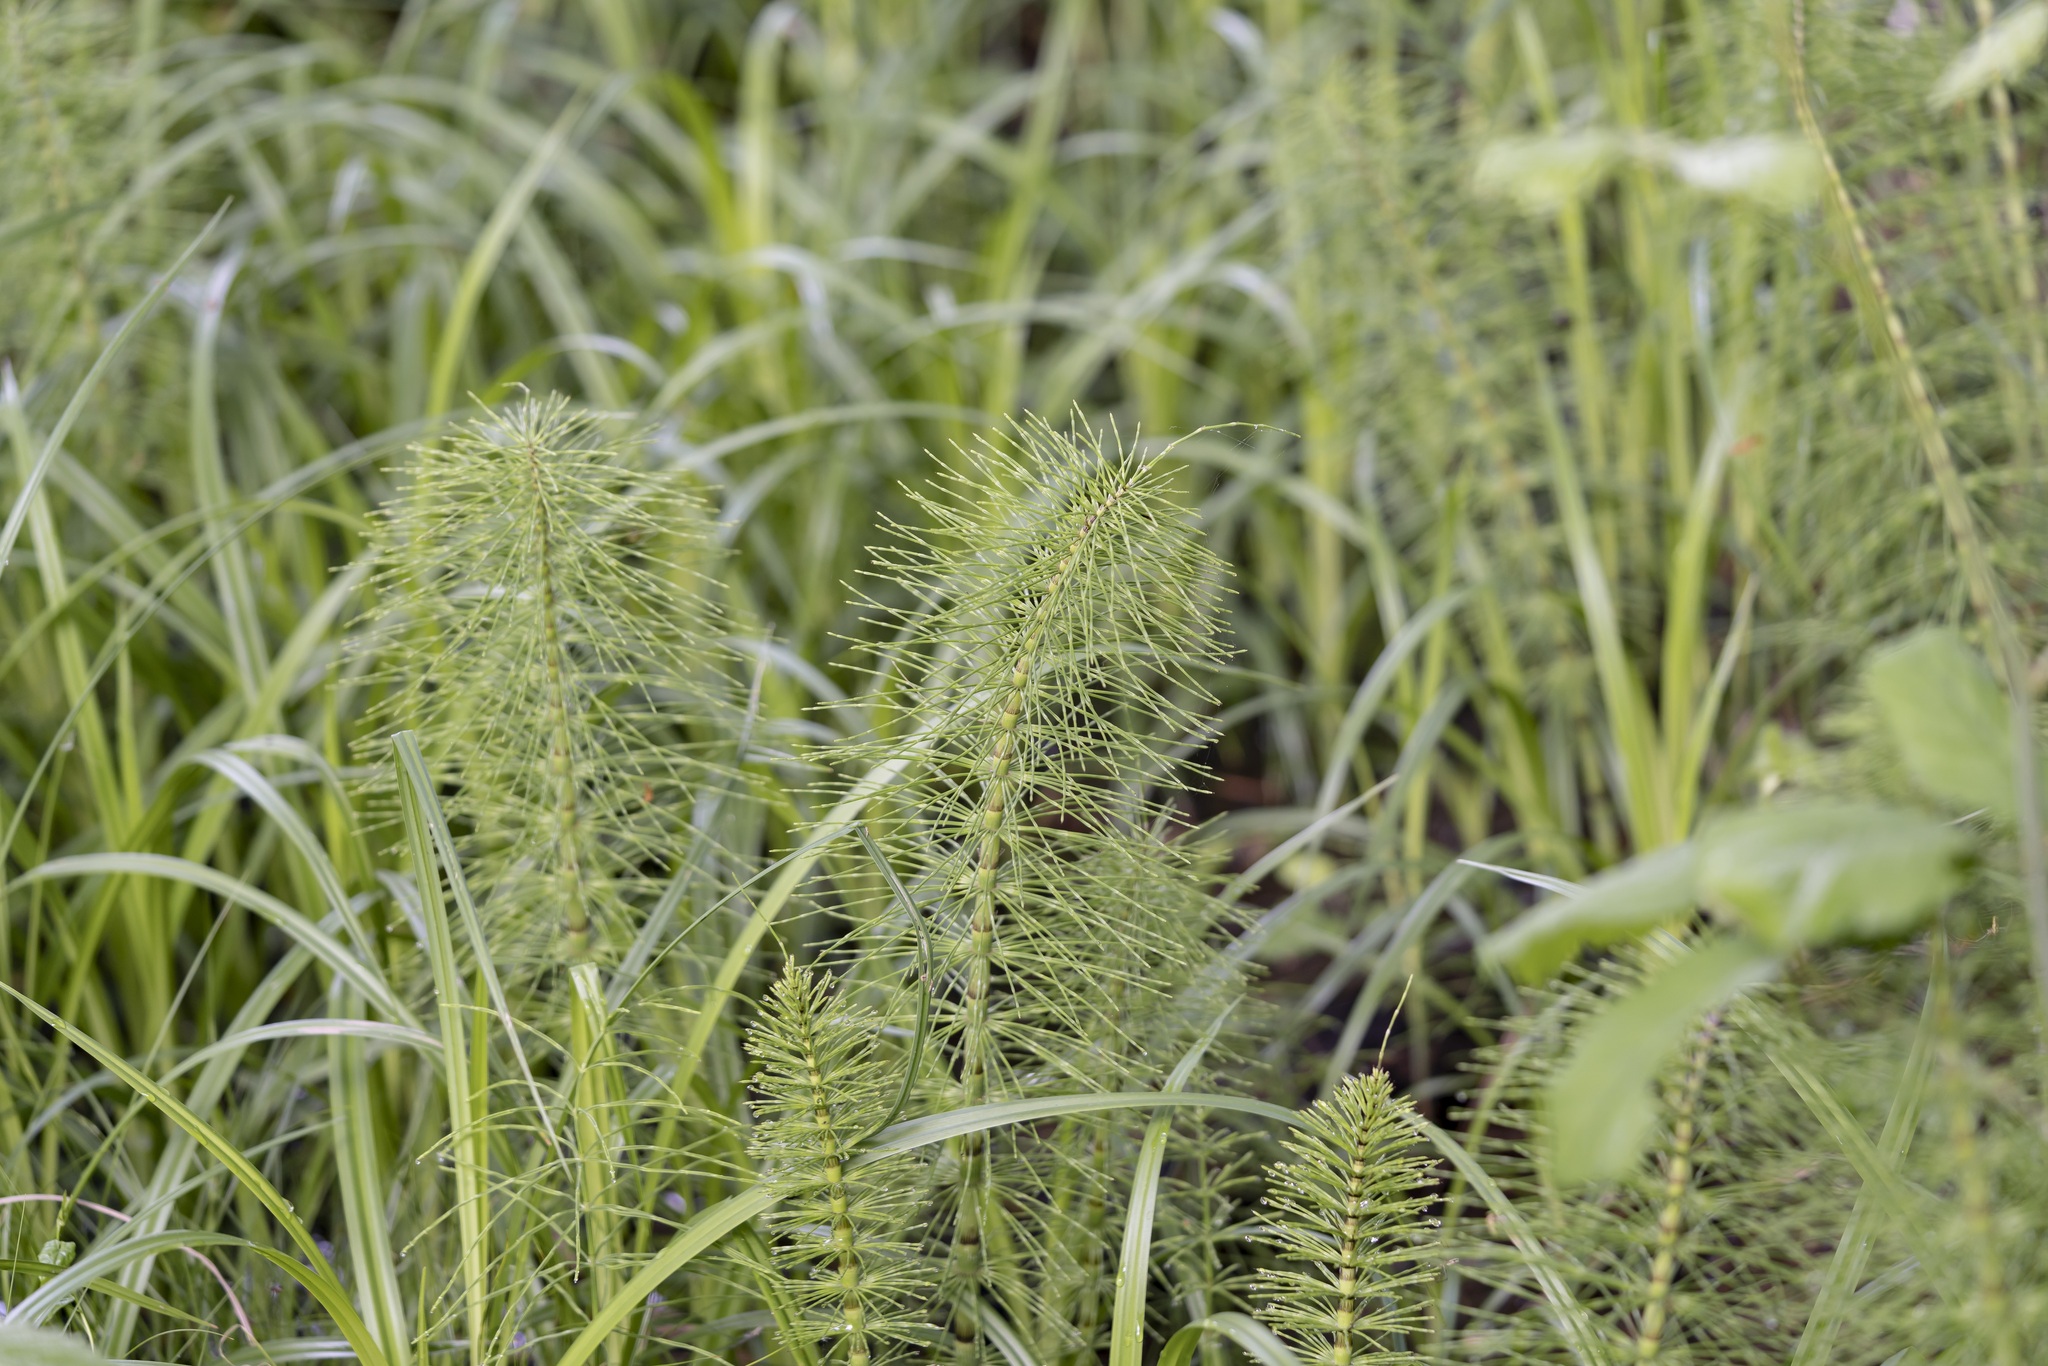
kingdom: Plantae
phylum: Tracheophyta
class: Polypodiopsida
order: Equisetales
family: Equisetaceae
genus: Equisetum
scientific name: Equisetum telmateia
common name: Great horsetail
